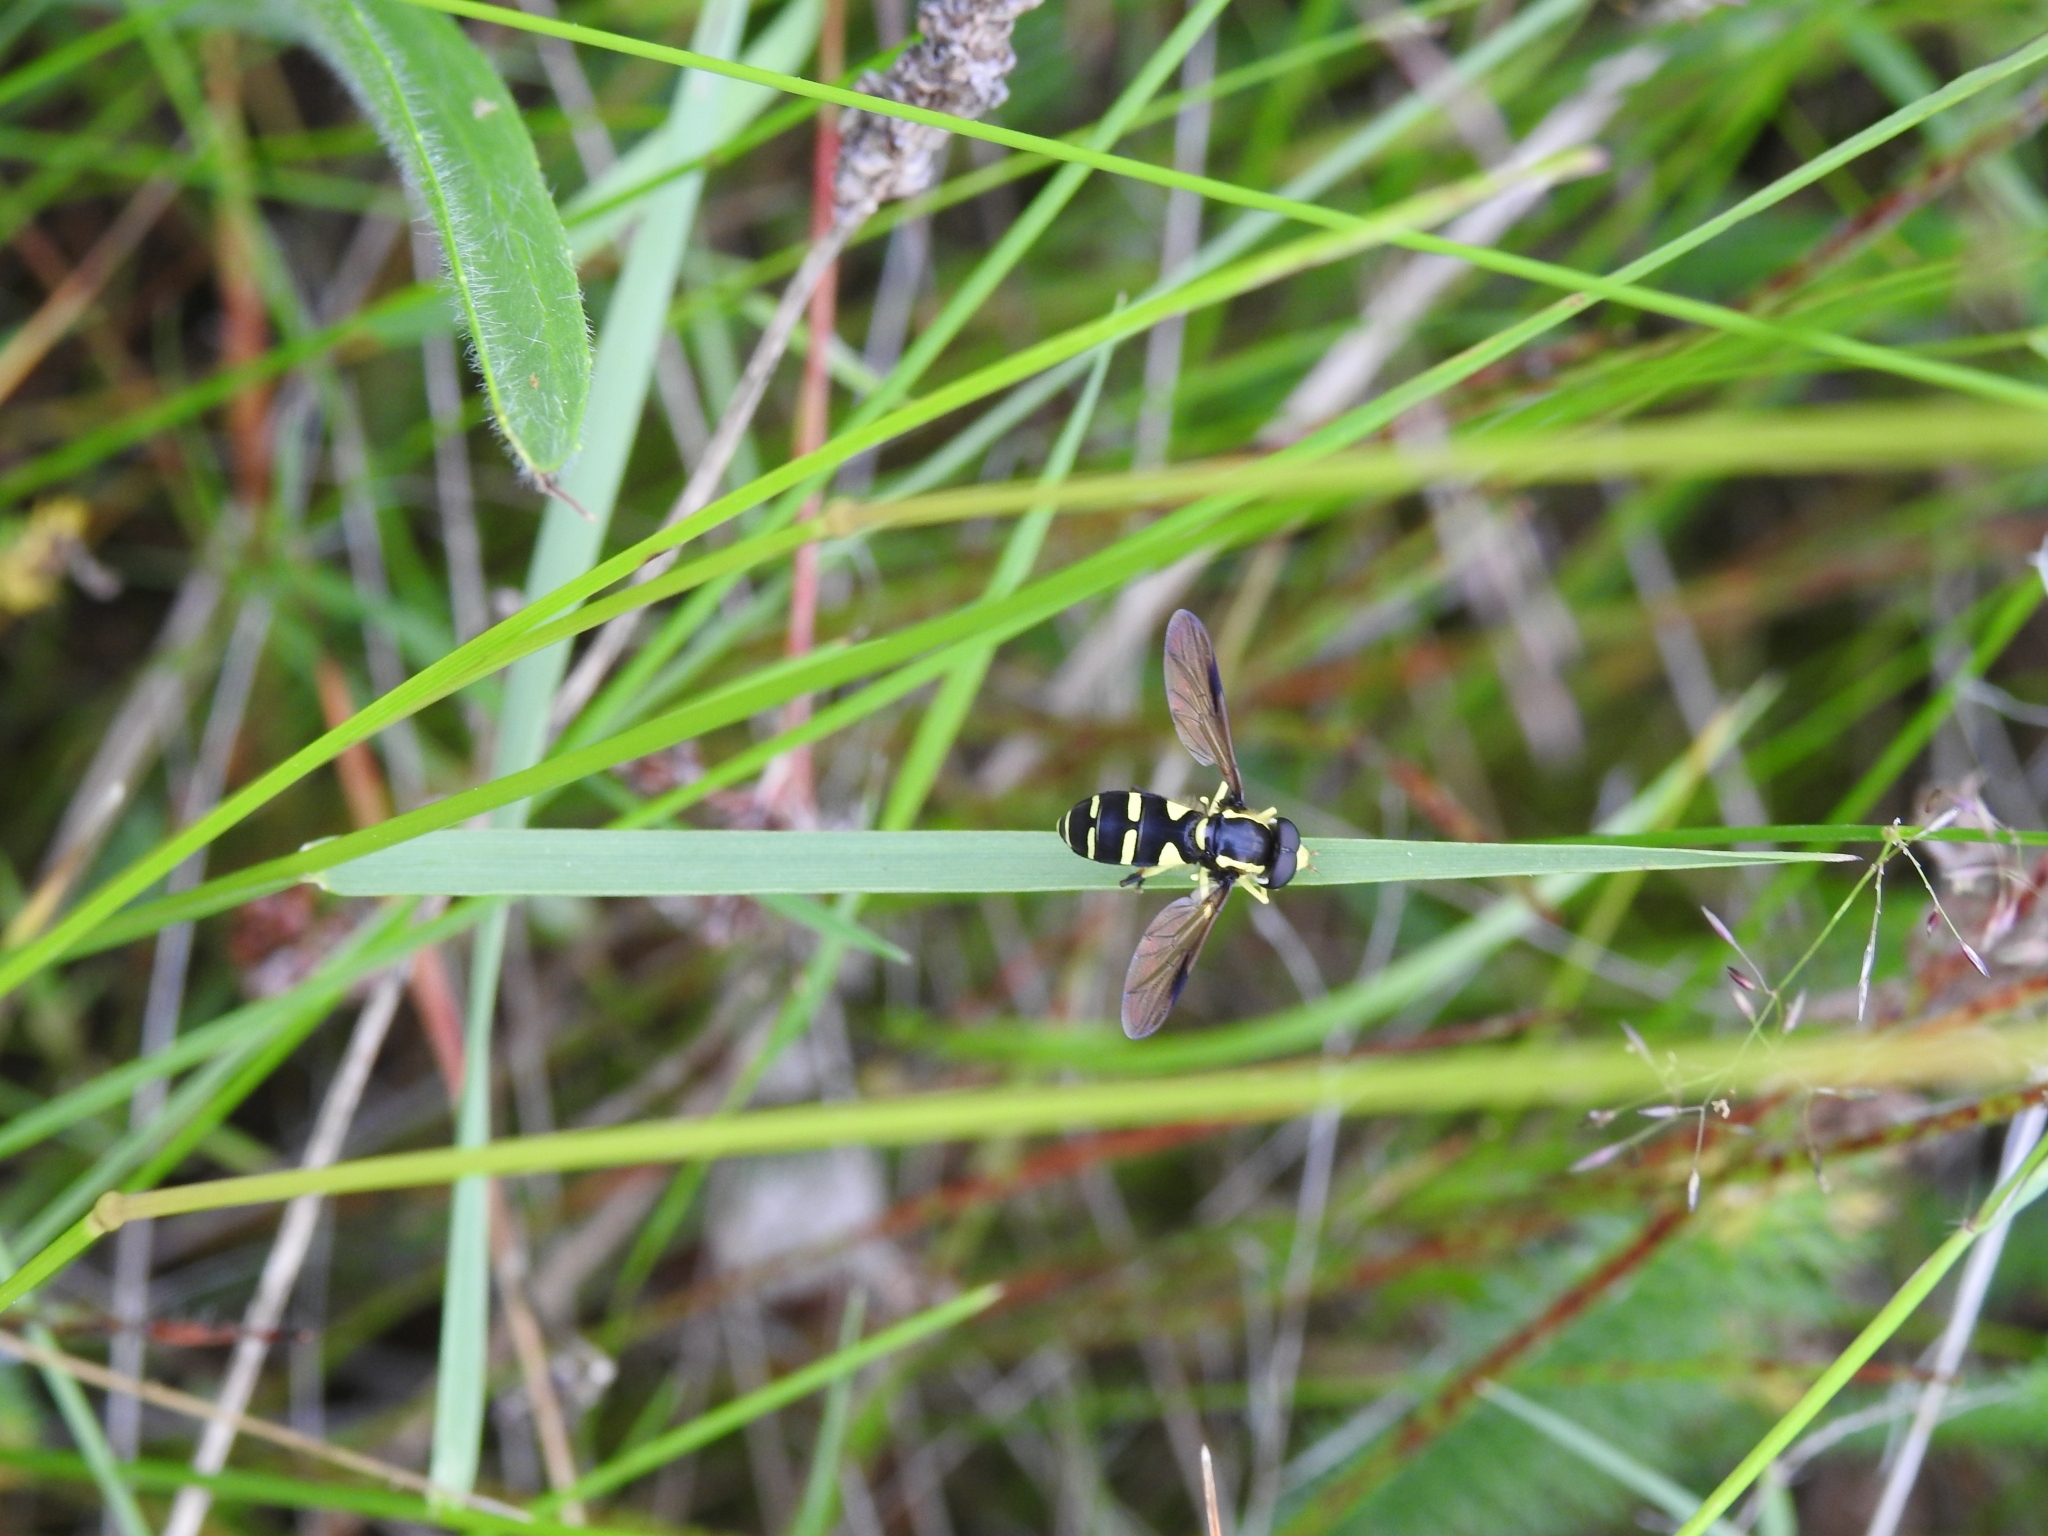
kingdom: Animalia
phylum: Arthropoda
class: Insecta
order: Diptera
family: Syrphidae
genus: Philhelius
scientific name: Philhelius dives
